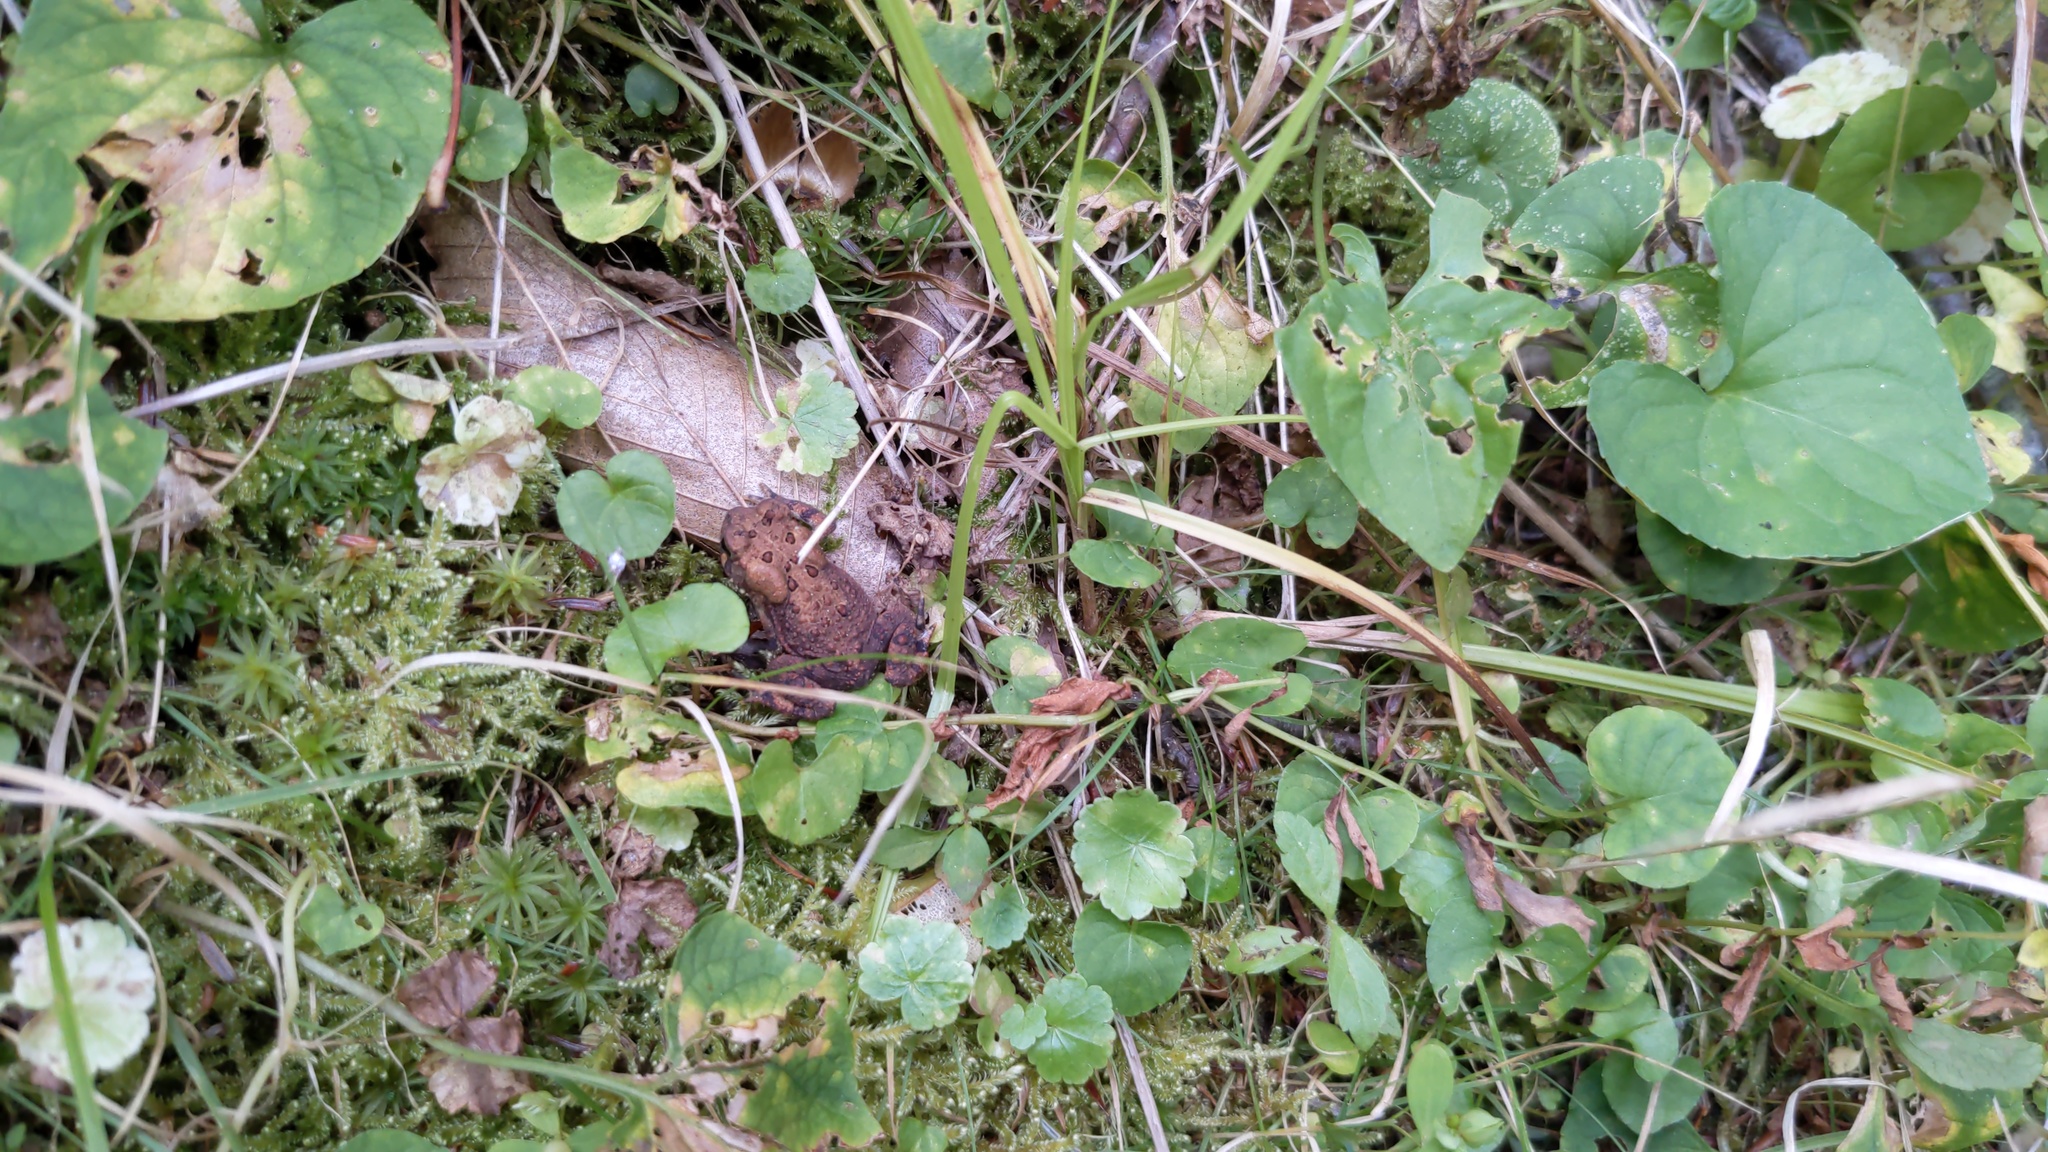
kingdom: Animalia
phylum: Chordata
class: Amphibia
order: Anura
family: Bufonidae
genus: Anaxyrus
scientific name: Anaxyrus americanus
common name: American toad
